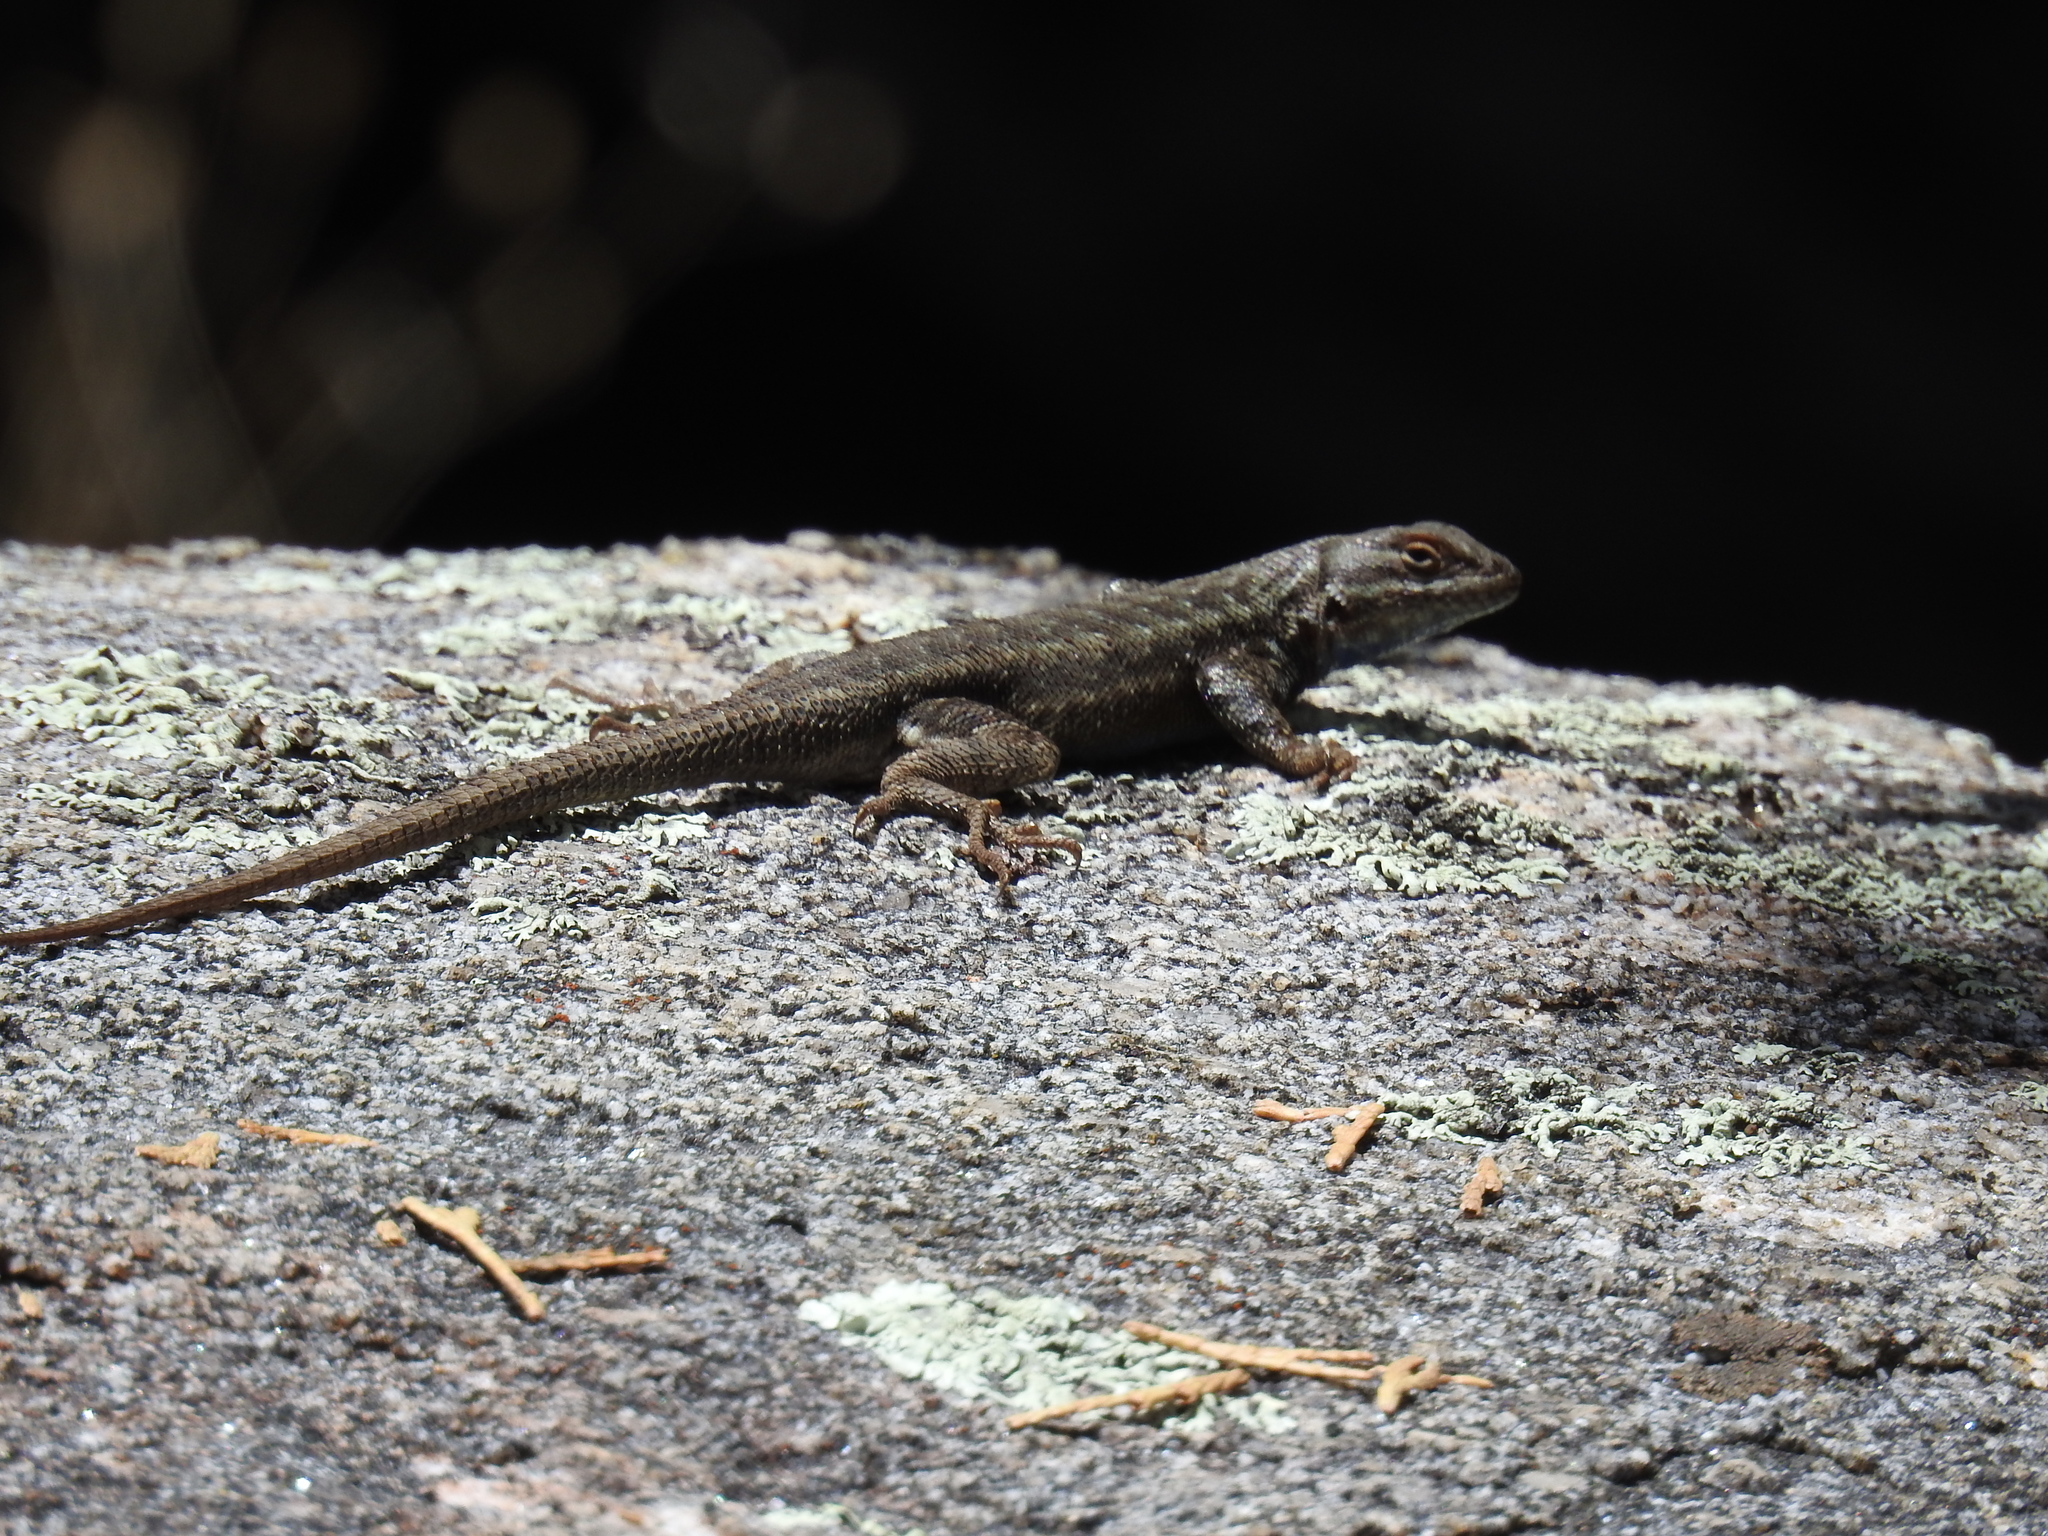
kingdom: Animalia
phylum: Chordata
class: Squamata
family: Phrynosomatidae
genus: Sceloporus
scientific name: Sceloporus graciosus
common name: Sagebrush lizard
